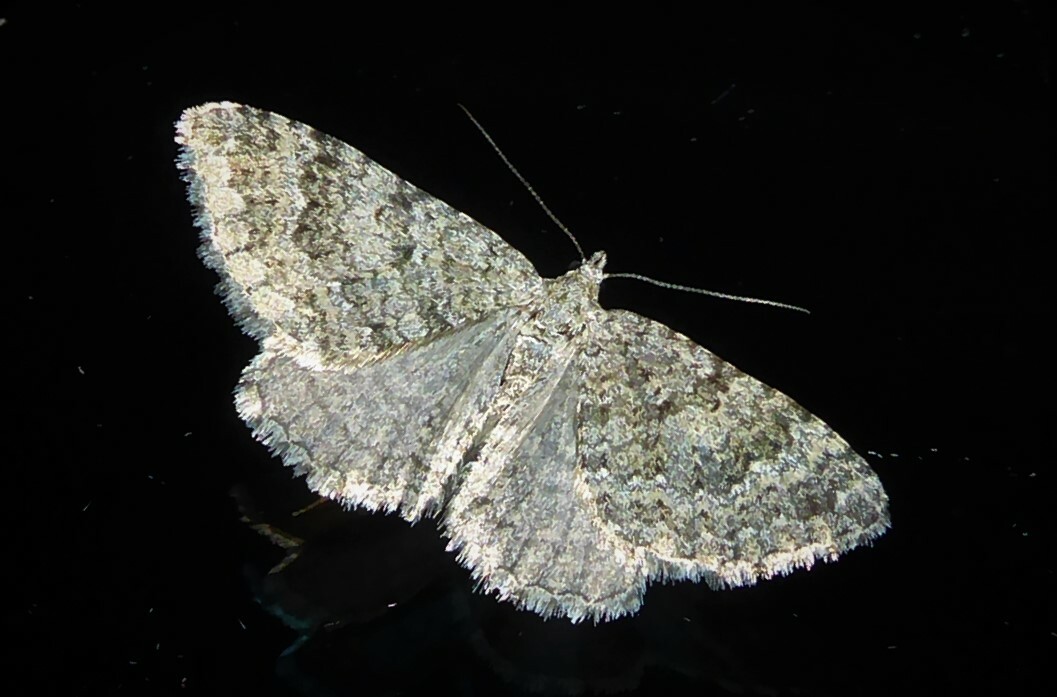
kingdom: Animalia
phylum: Arthropoda
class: Insecta
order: Lepidoptera
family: Geometridae
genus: Helastia
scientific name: Helastia corcularia
